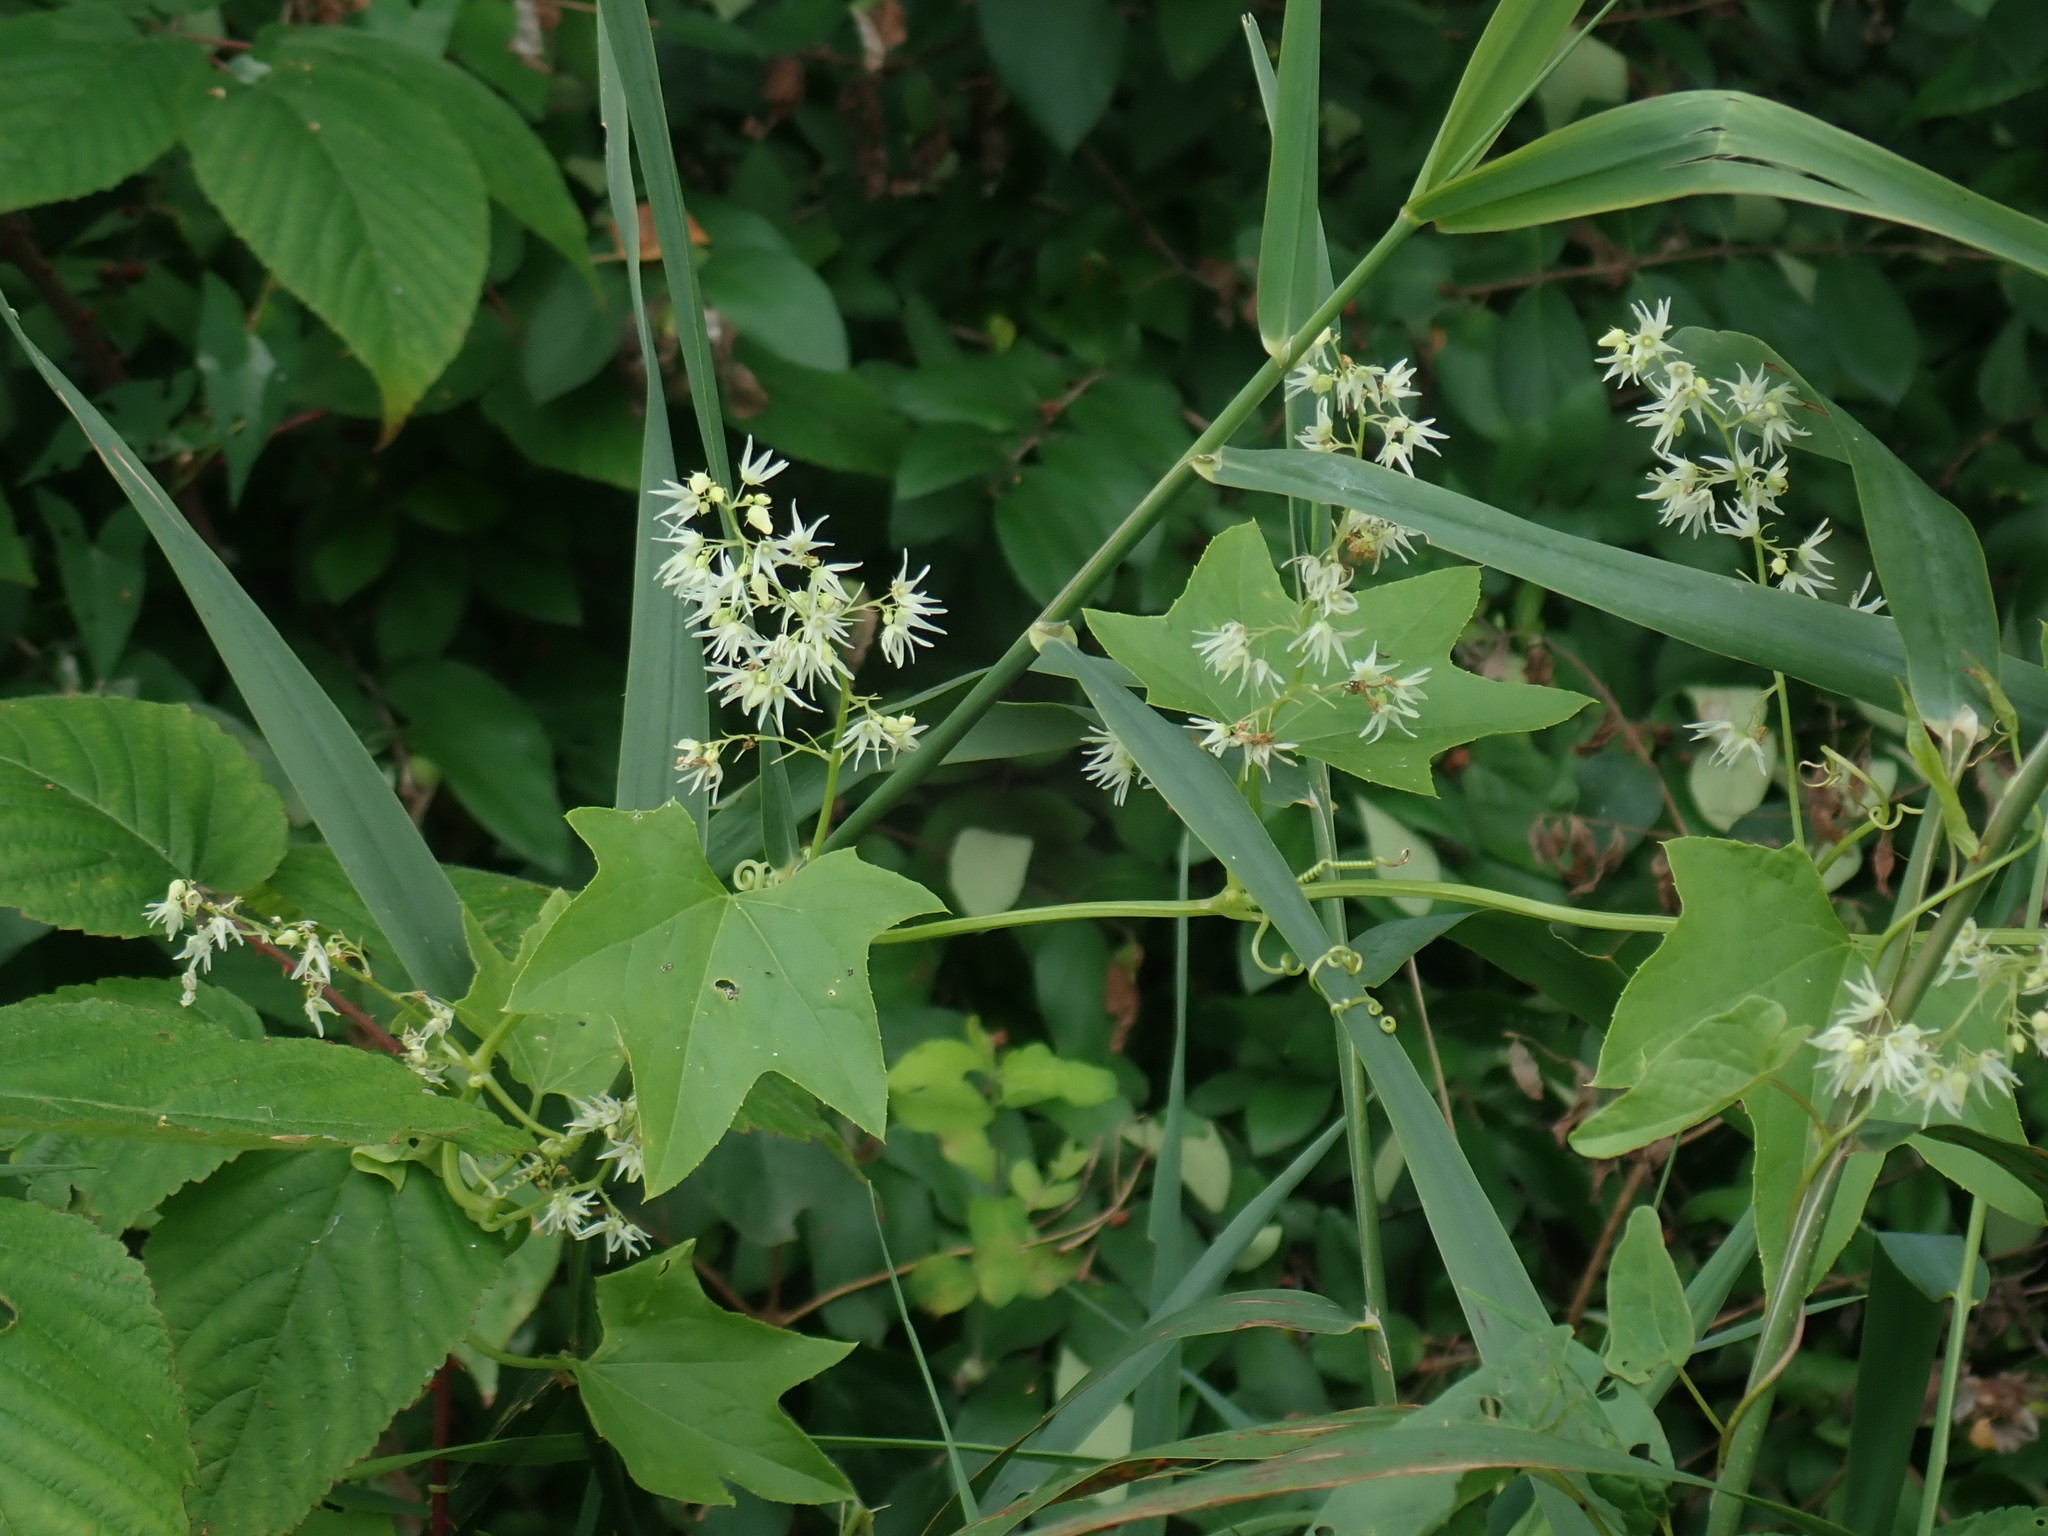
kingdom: Plantae
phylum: Tracheophyta
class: Magnoliopsida
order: Cucurbitales
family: Cucurbitaceae
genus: Echinocystis
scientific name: Echinocystis lobata
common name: Wild cucumber
